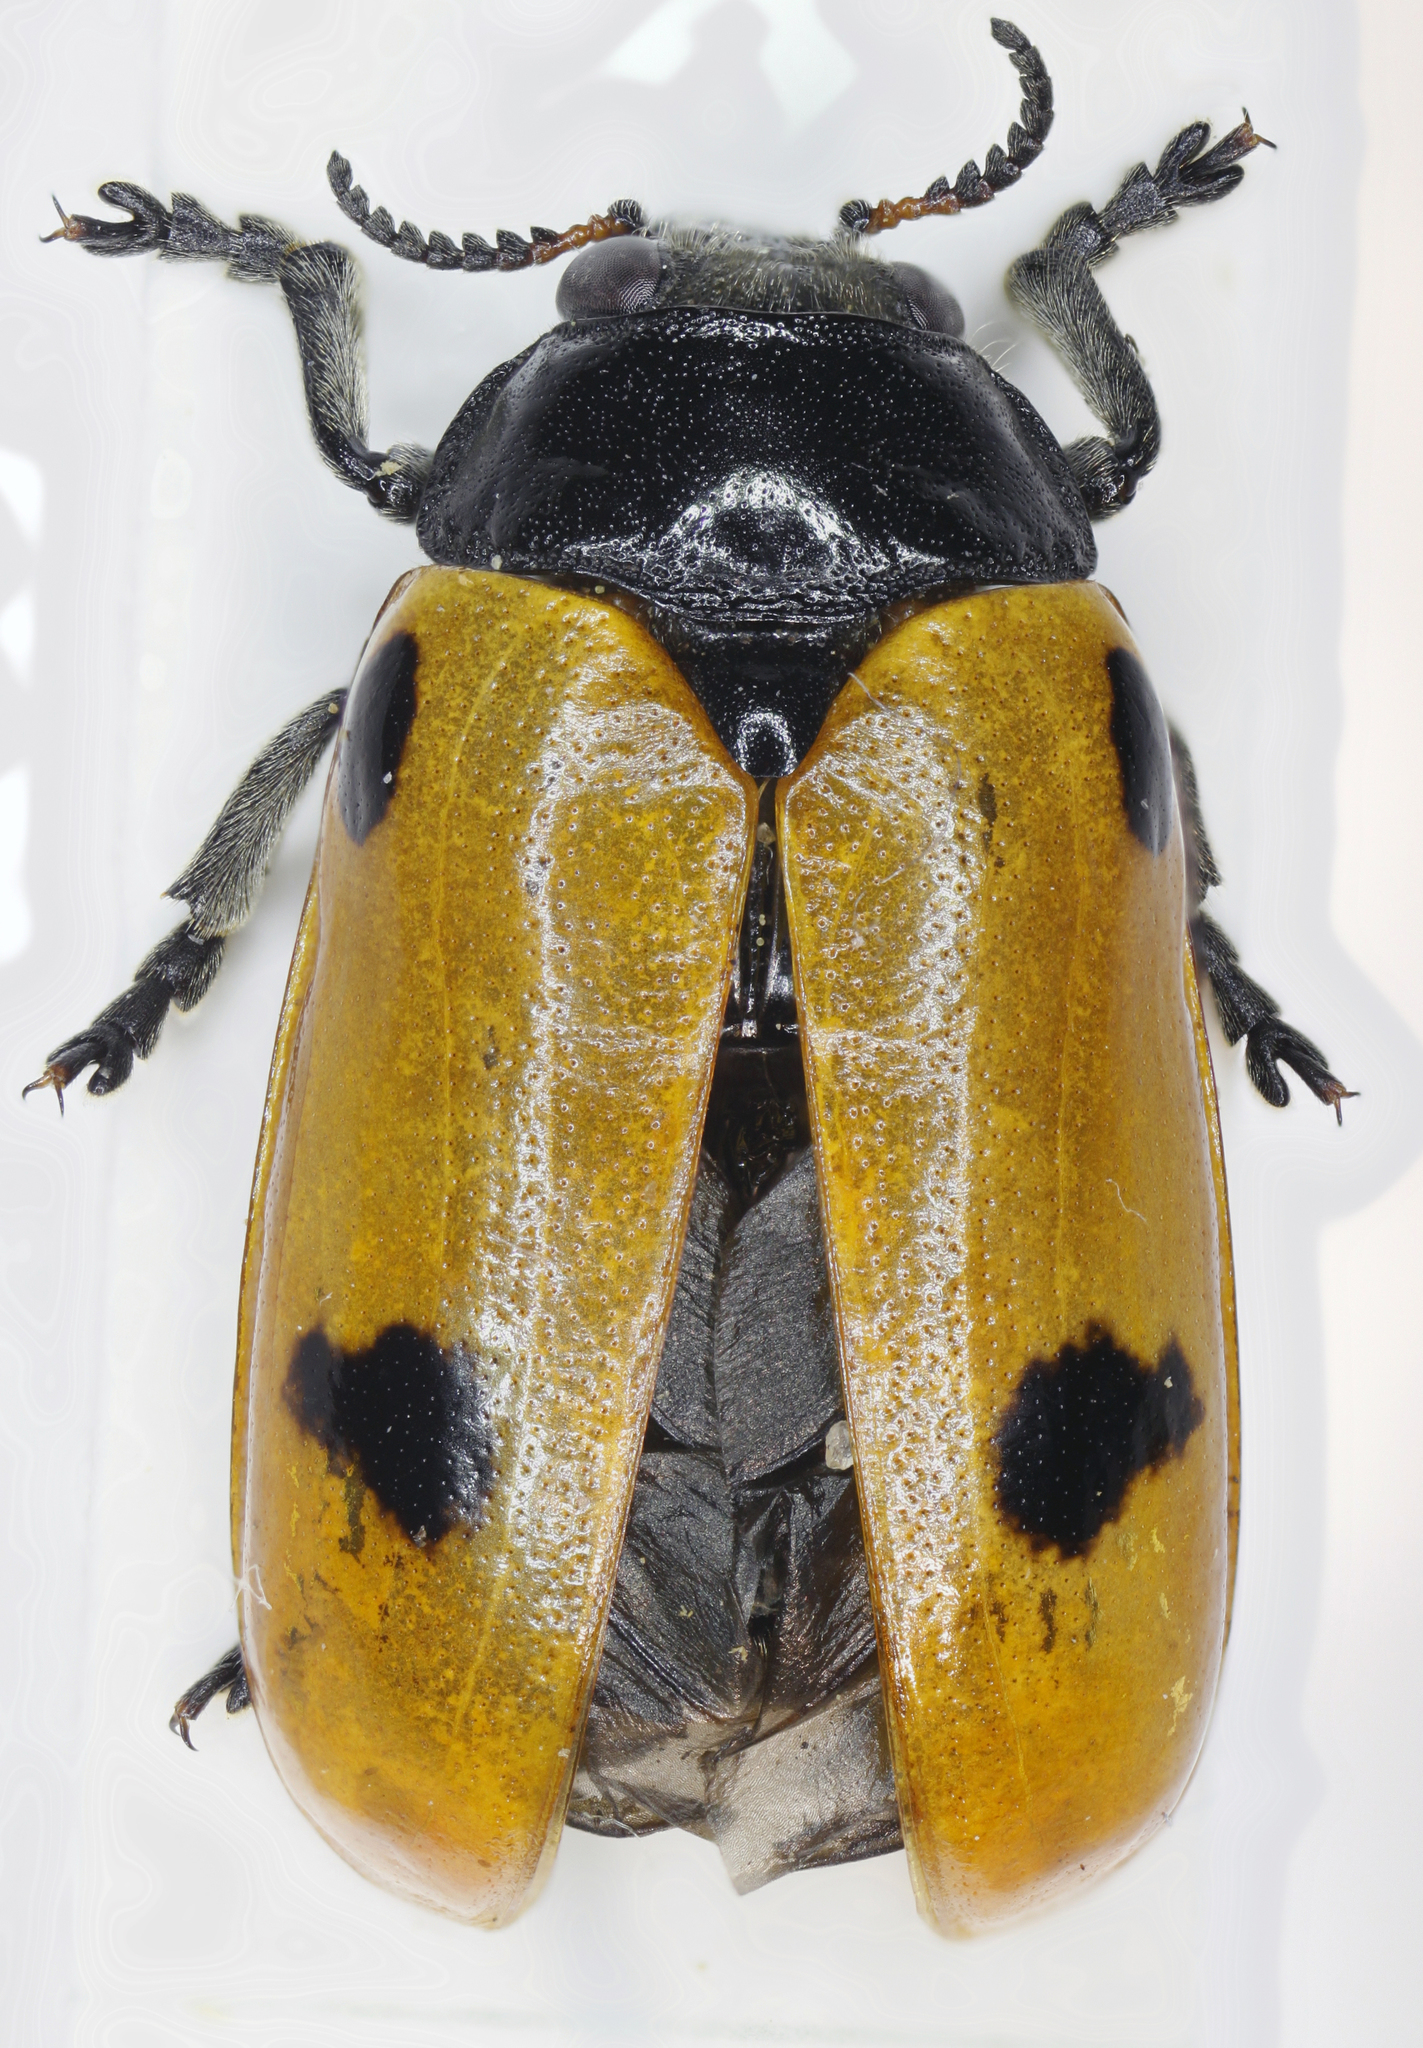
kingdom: Animalia
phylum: Arthropoda
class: Insecta
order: Coleoptera
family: Chrysomelidae
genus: Clytra
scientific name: Clytra quadripunctata
